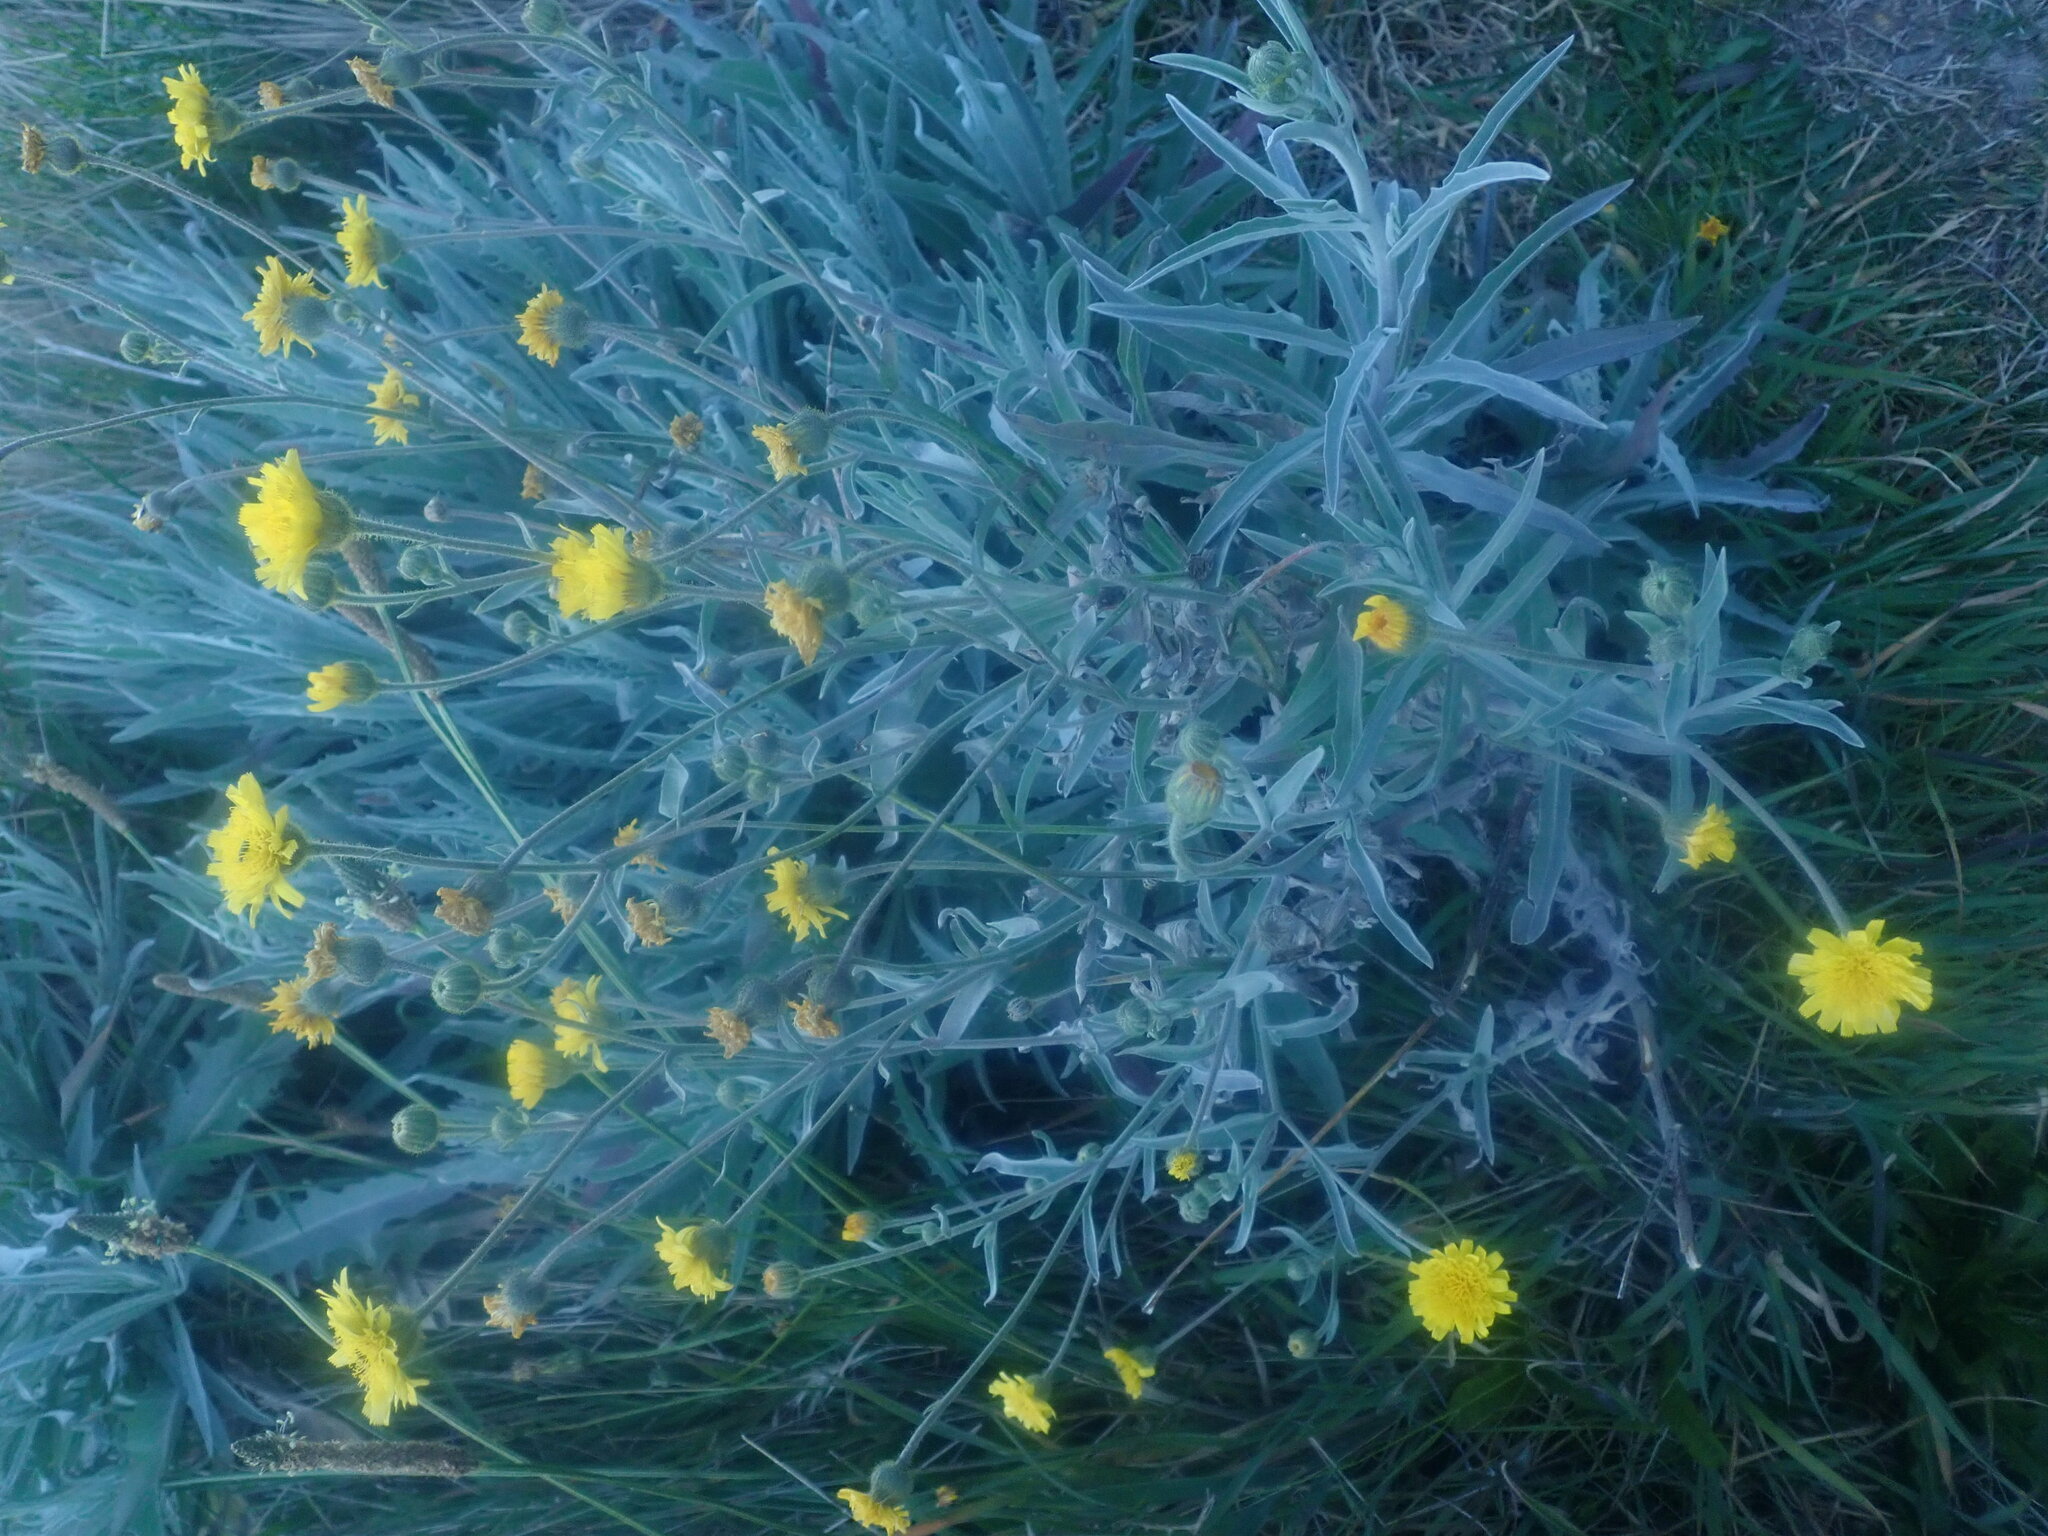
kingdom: Plantae
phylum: Tracheophyta
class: Magnoliopsida
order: Asterales
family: Asteraceae
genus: Andryala
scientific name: Andryala glandulosa
